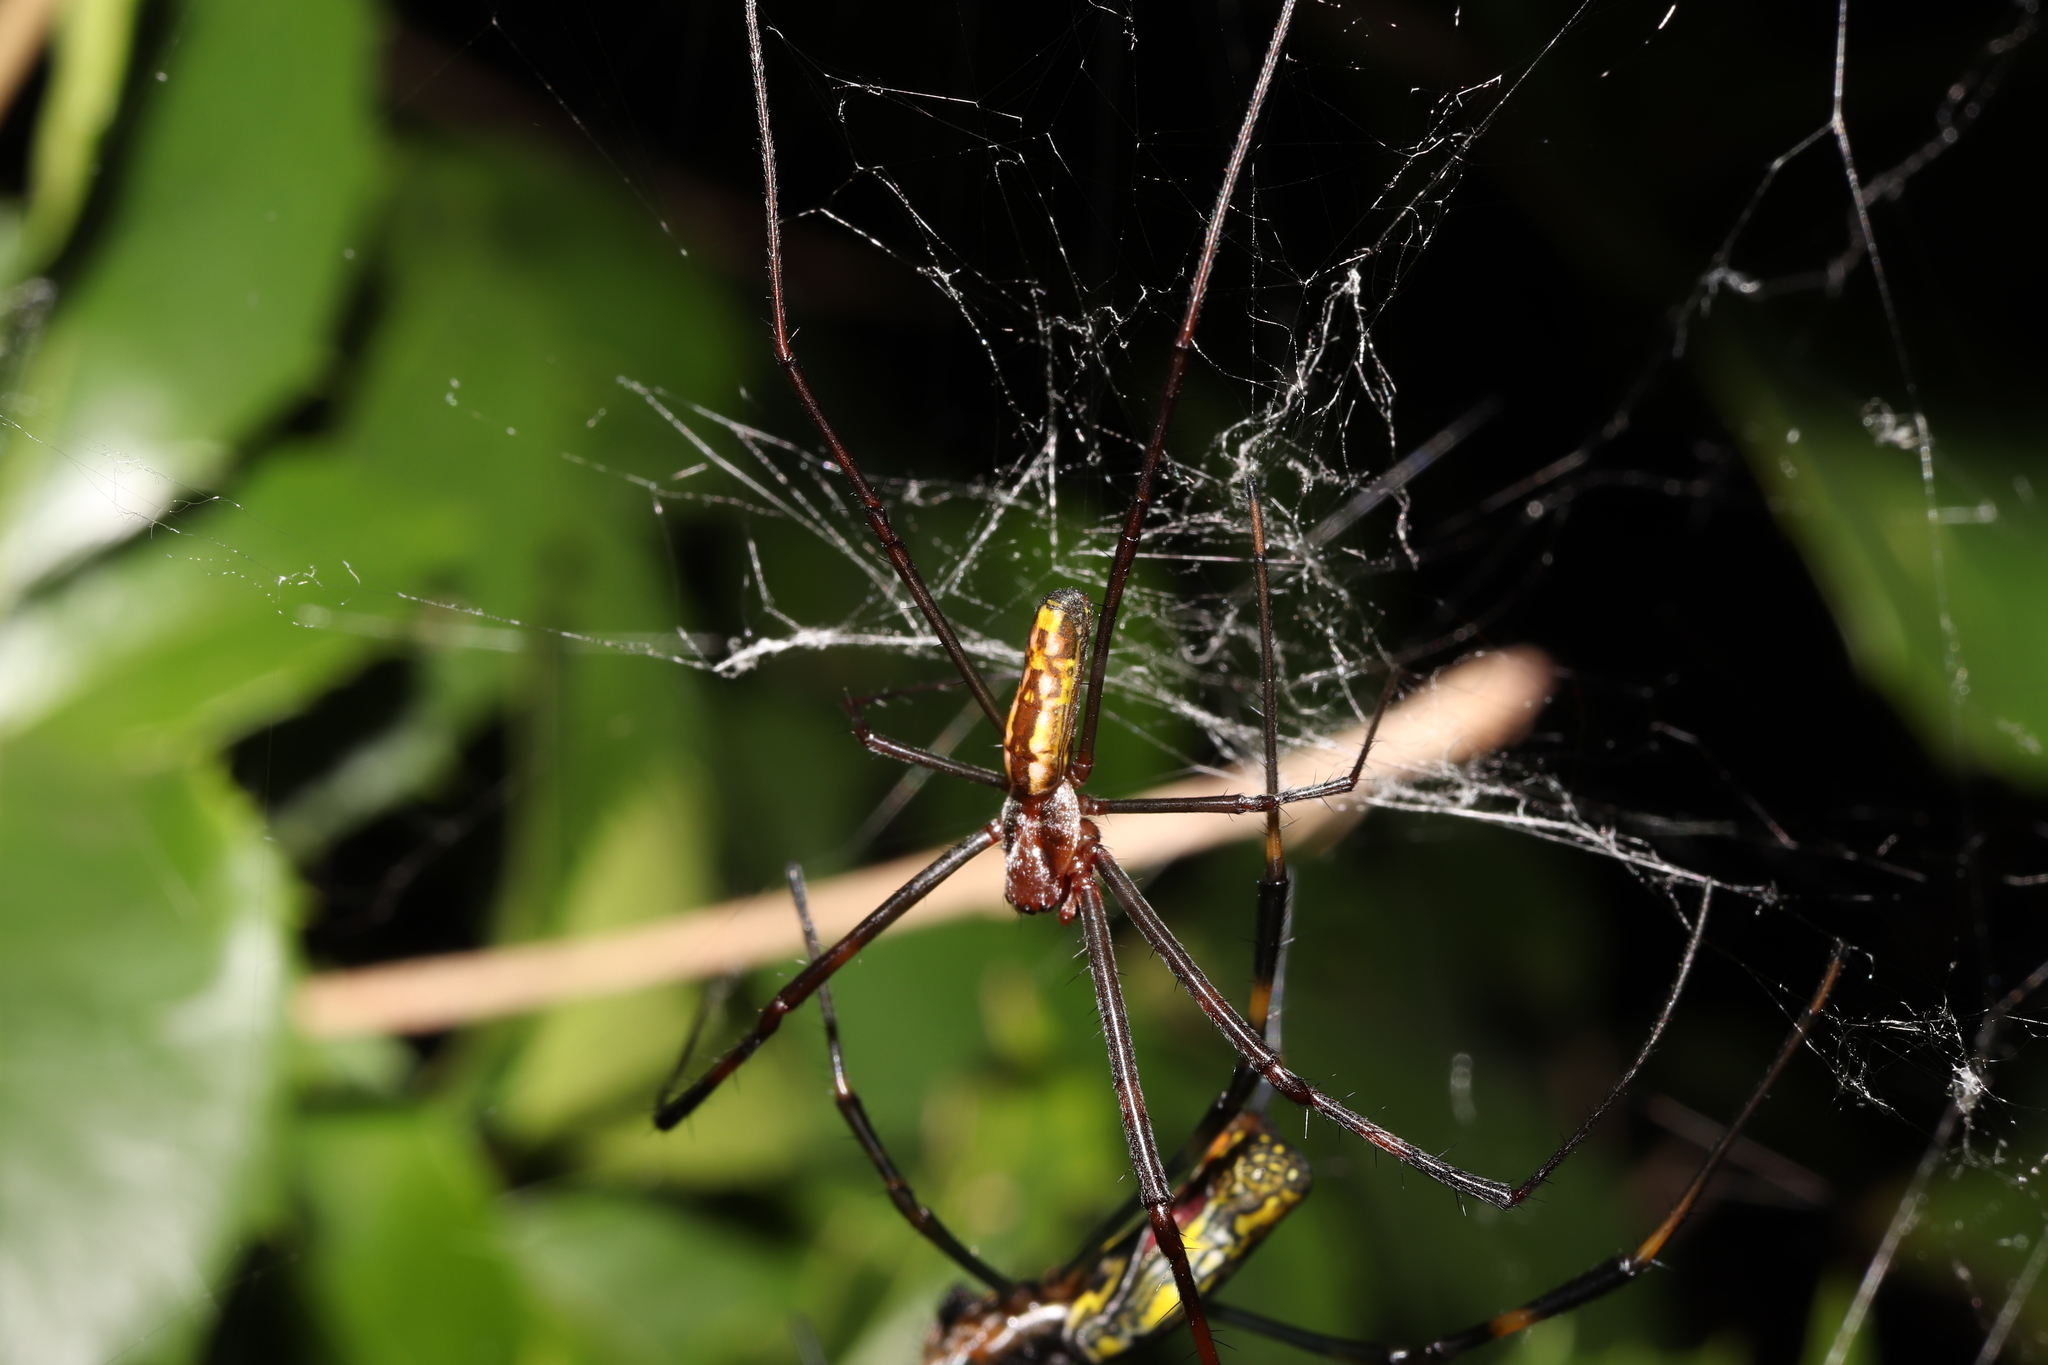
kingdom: Animalia
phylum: Arthropoda
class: Arachnida
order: Araneae
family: Araneidae
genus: Trichonephila
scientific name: Trichonephila clavata
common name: Jorō spider
